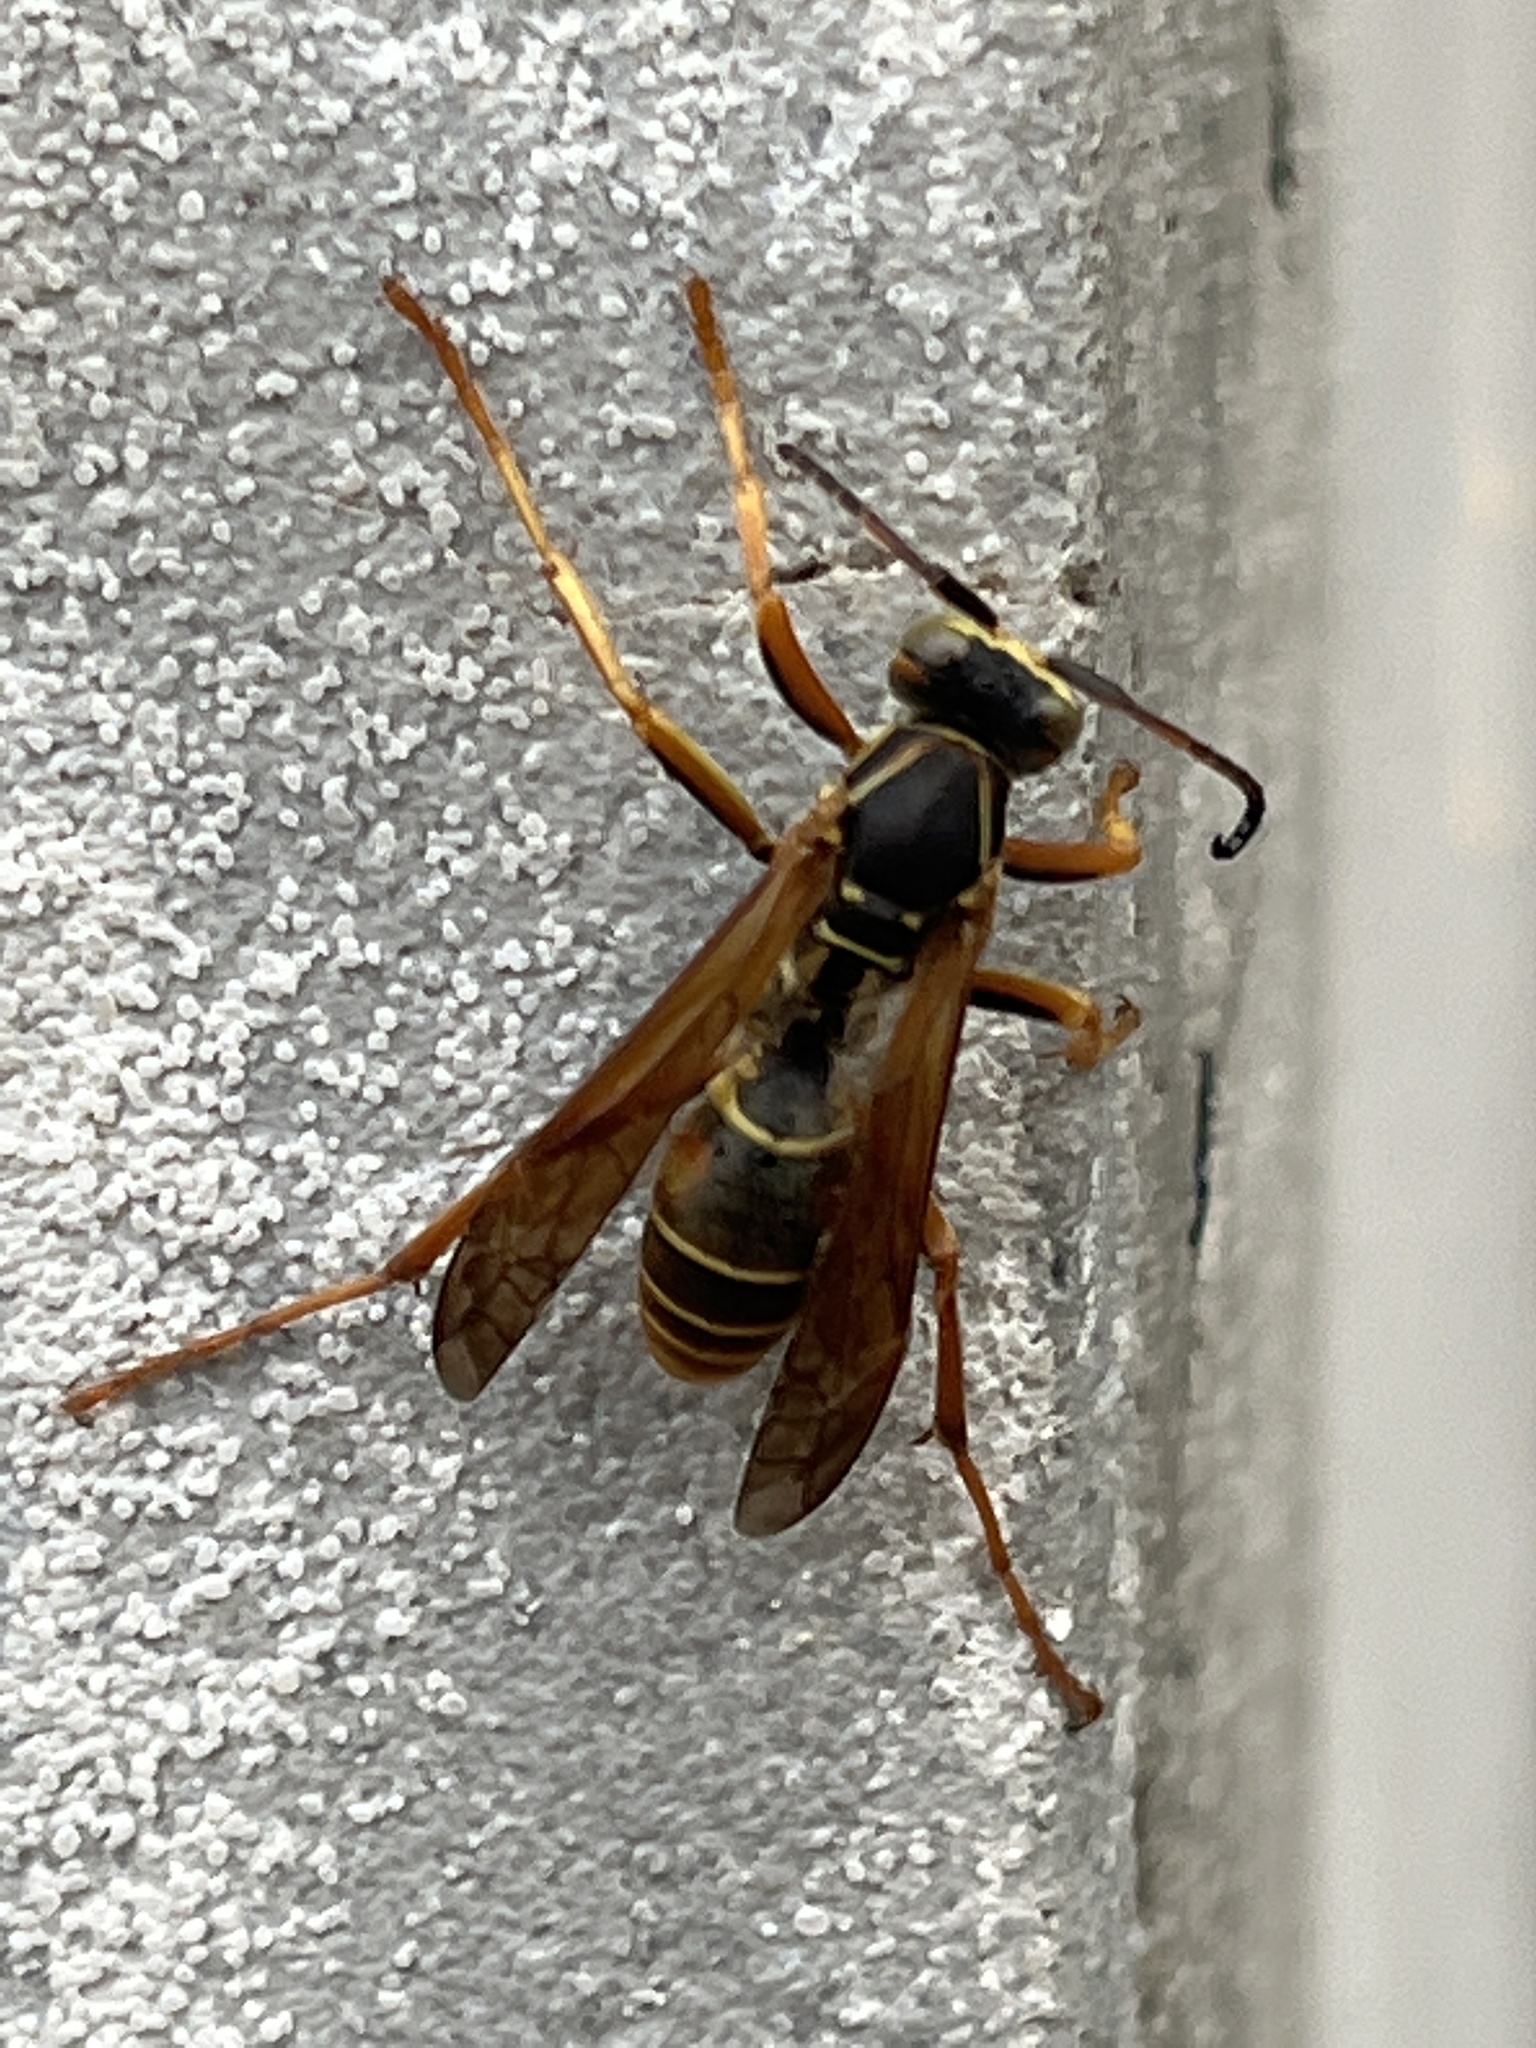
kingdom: Animalia
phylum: Arthropoda
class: Insecta
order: Hymenoptera
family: Eumenidae
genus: Polistes
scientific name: Polistes fuscatus
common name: Dark paper wasp
